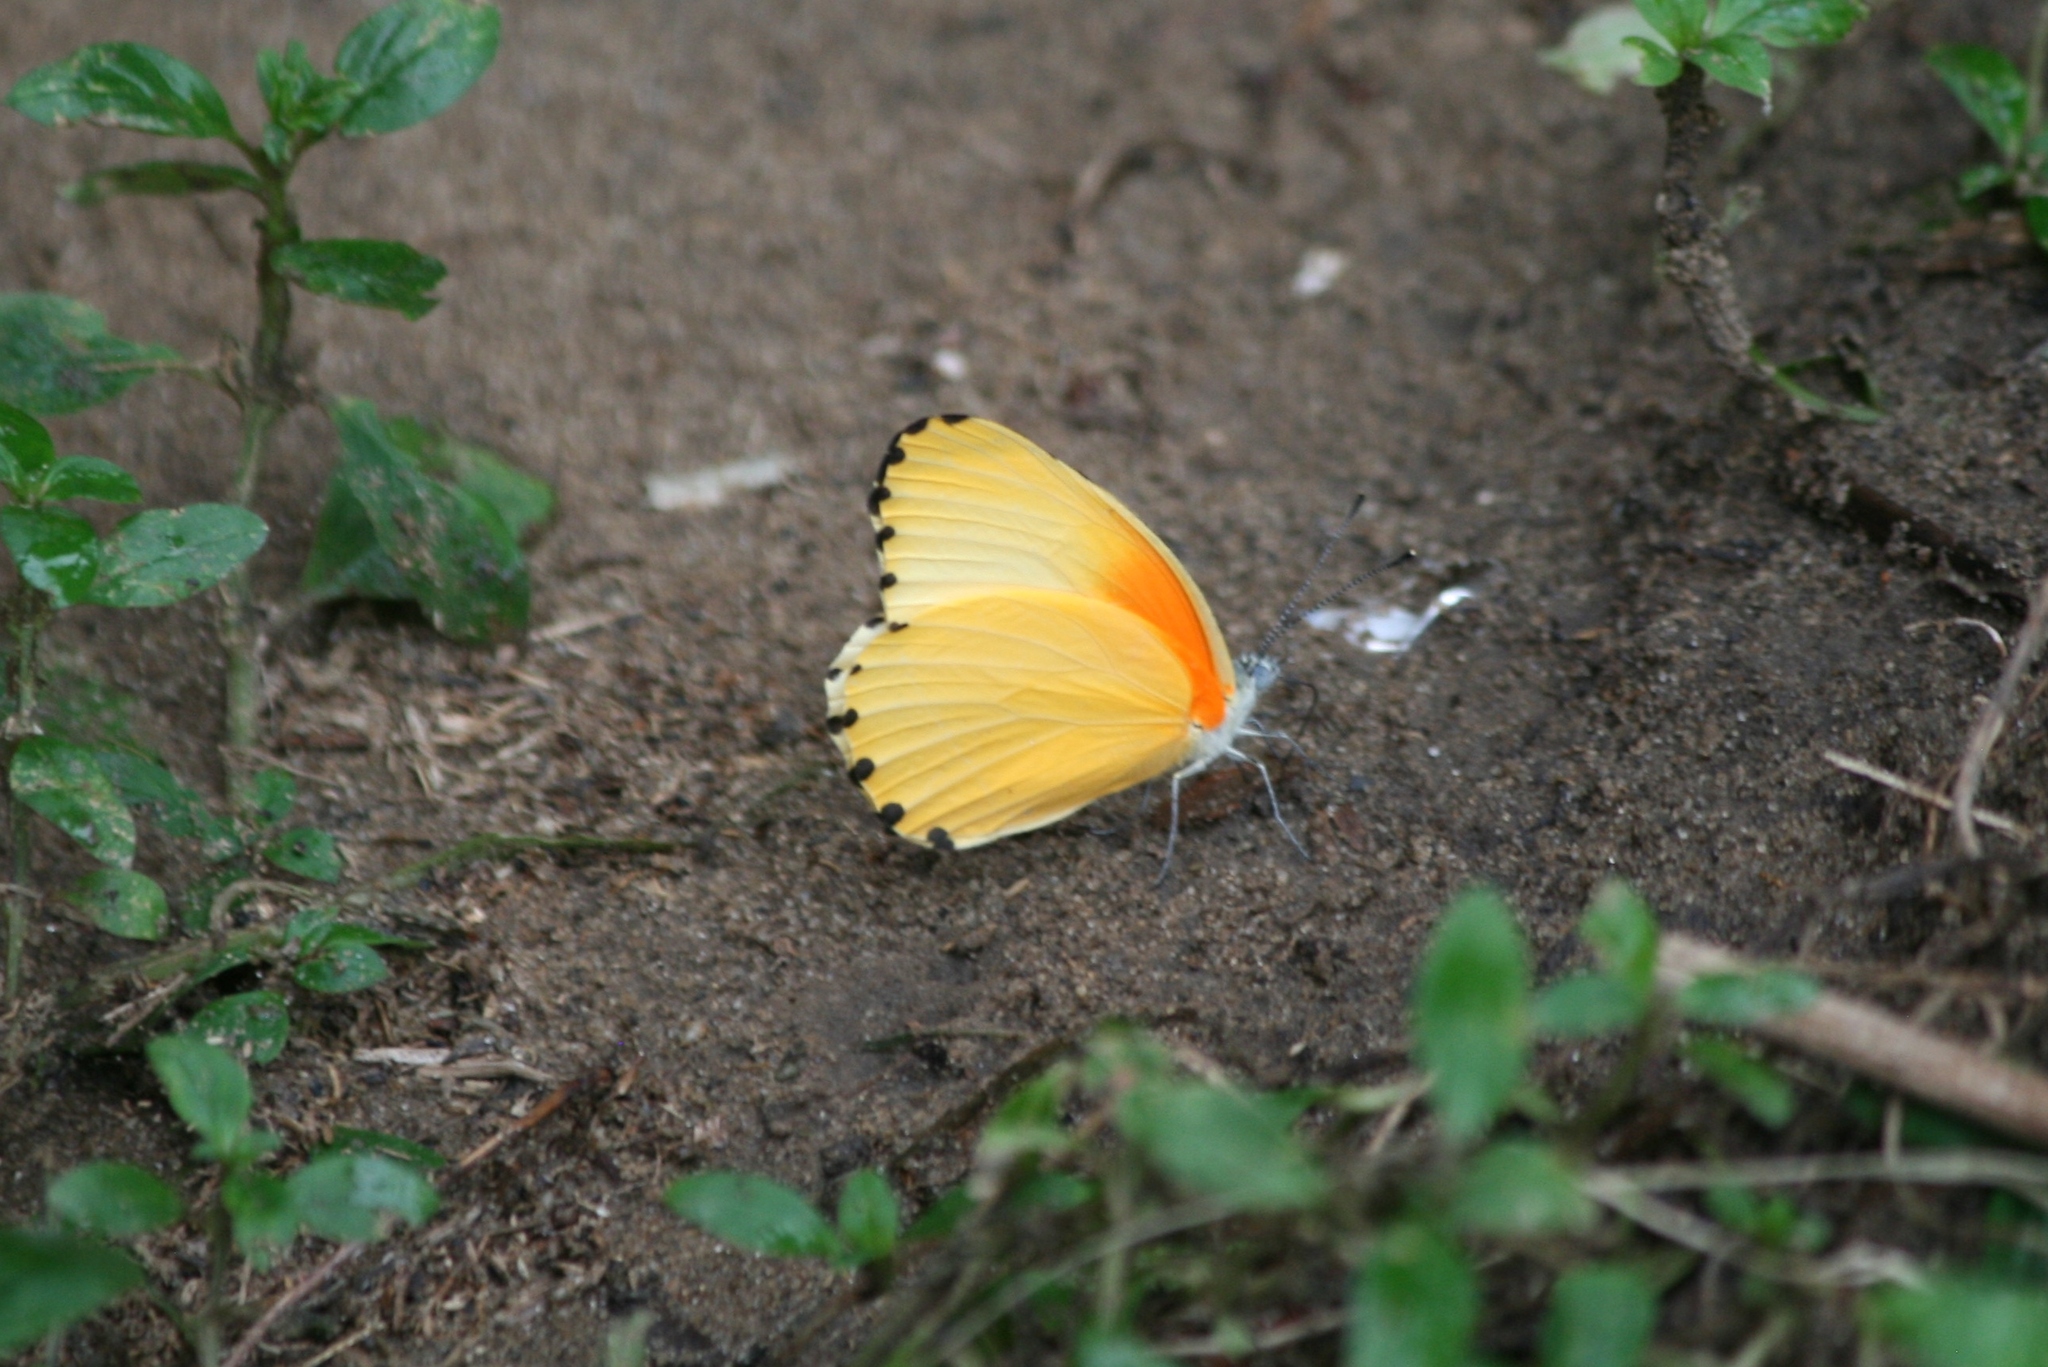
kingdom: Animalia
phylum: Arthropoda
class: Insecta
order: Lepidoptera
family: Pieridae
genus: Mylothris
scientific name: Mylothris agathina
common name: Eastern dotted border
